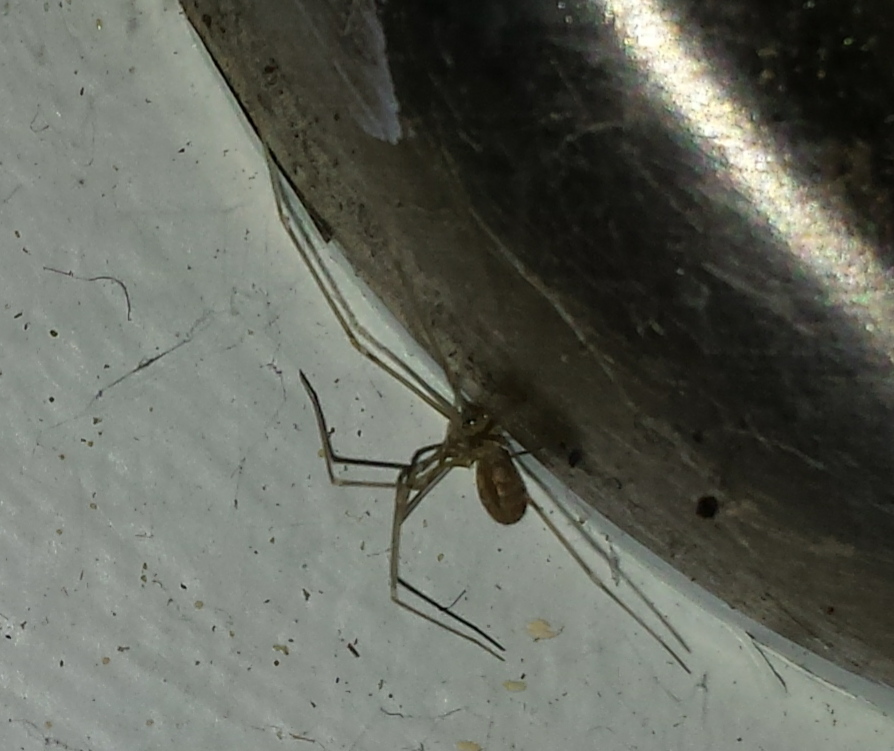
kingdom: Animalia
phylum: Arthropoda
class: Arachnida
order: Araneae
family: Pholcidae
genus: Pholcus
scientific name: Pholcus phalangioides
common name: Longbodied cellar spider
